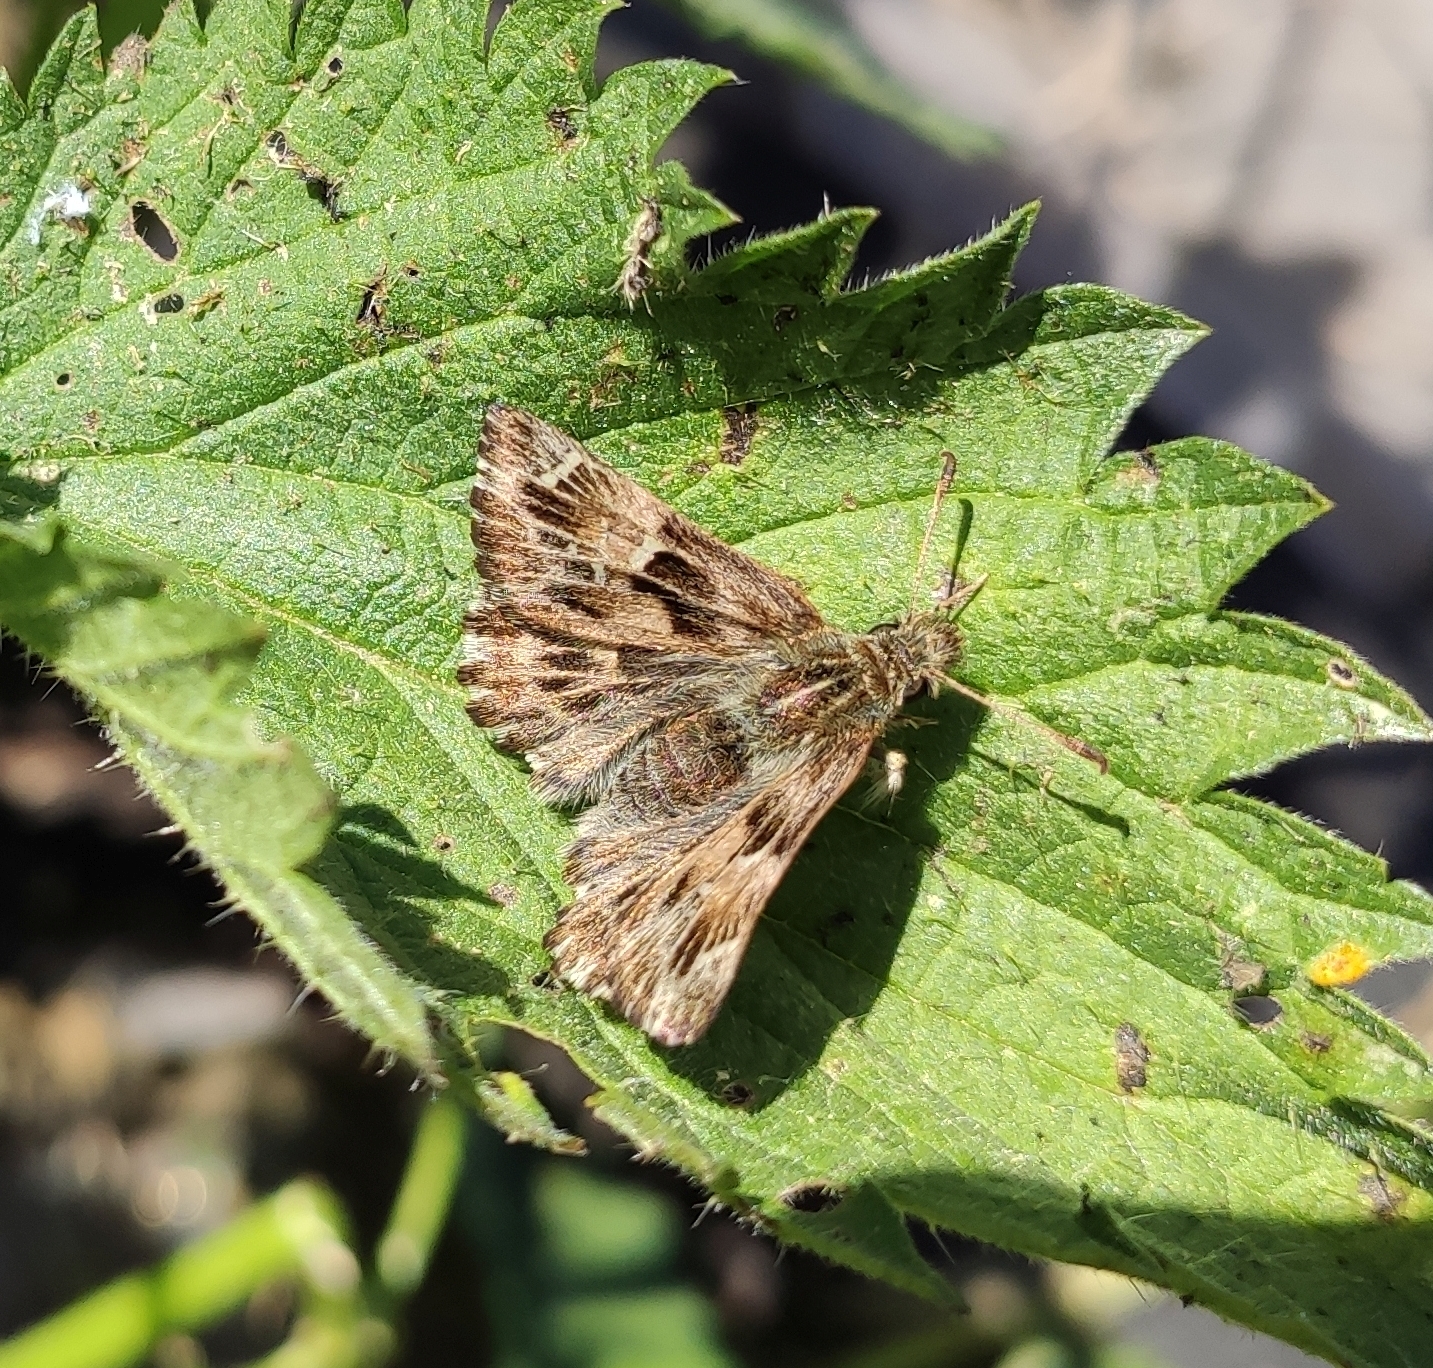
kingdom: Animalia
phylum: Arthropoda
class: Insecta
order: Lepidoptera
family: Hesperiidae
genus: Carcharodus
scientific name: Carcharodus alceae
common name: Mallow skipper
